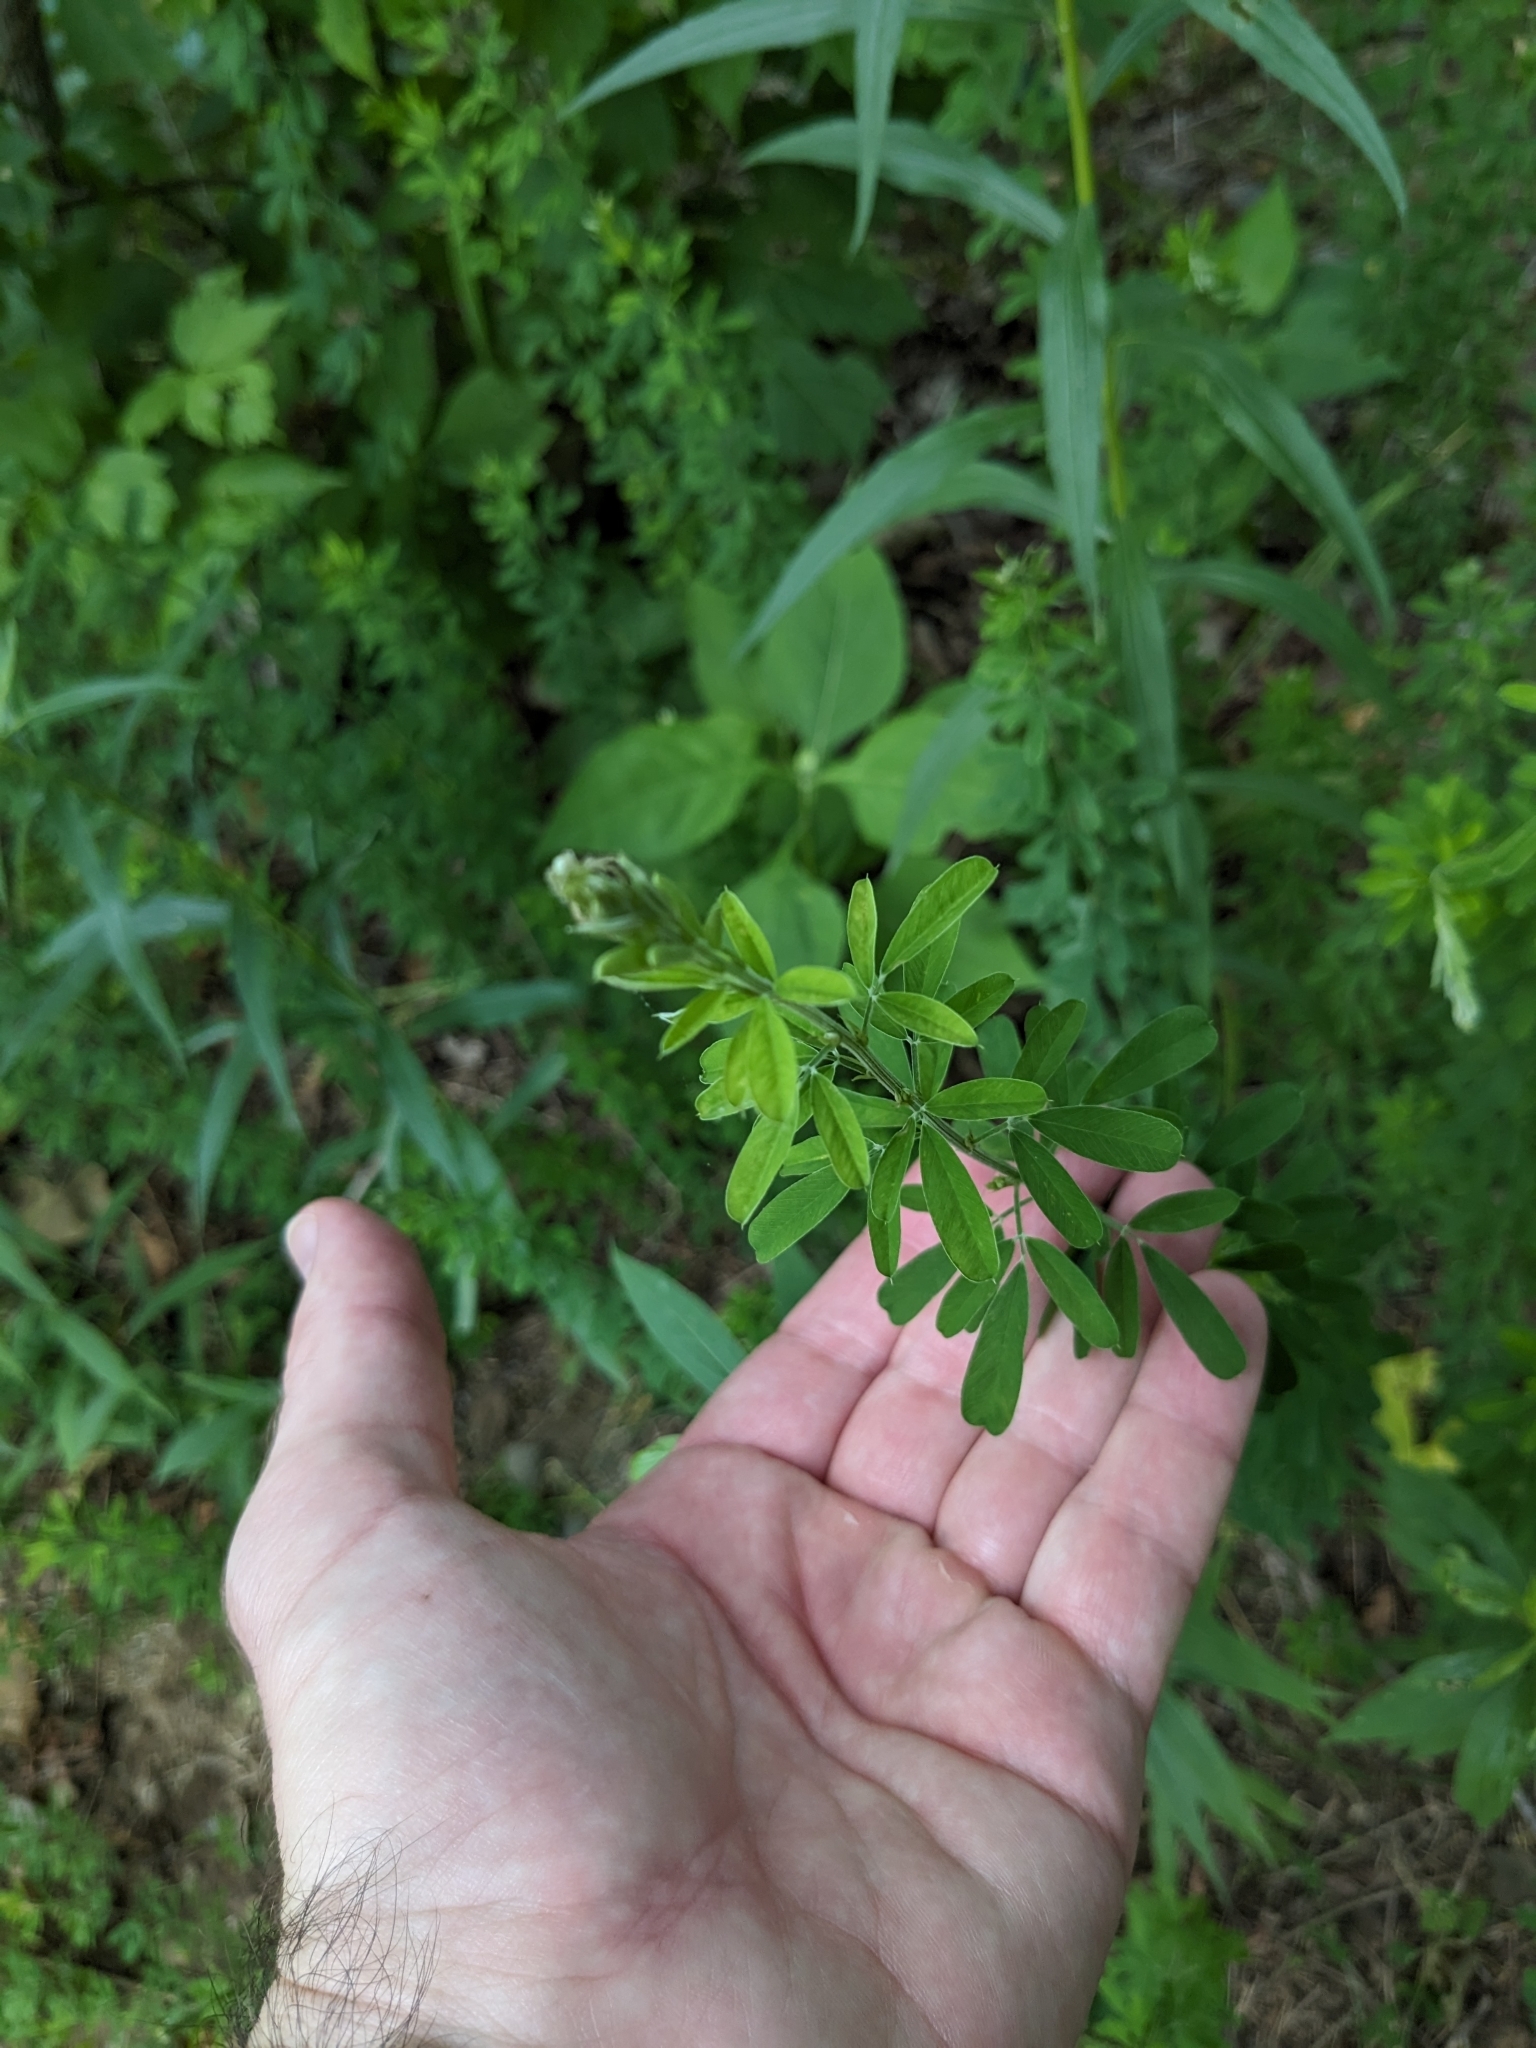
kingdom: Plantae
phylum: Tracheophyta
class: Magnoliopsida
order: Fabales
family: Fabaceae
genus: Lespedeza
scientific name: Lespedeza cuneata
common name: Chinese bush-clover
